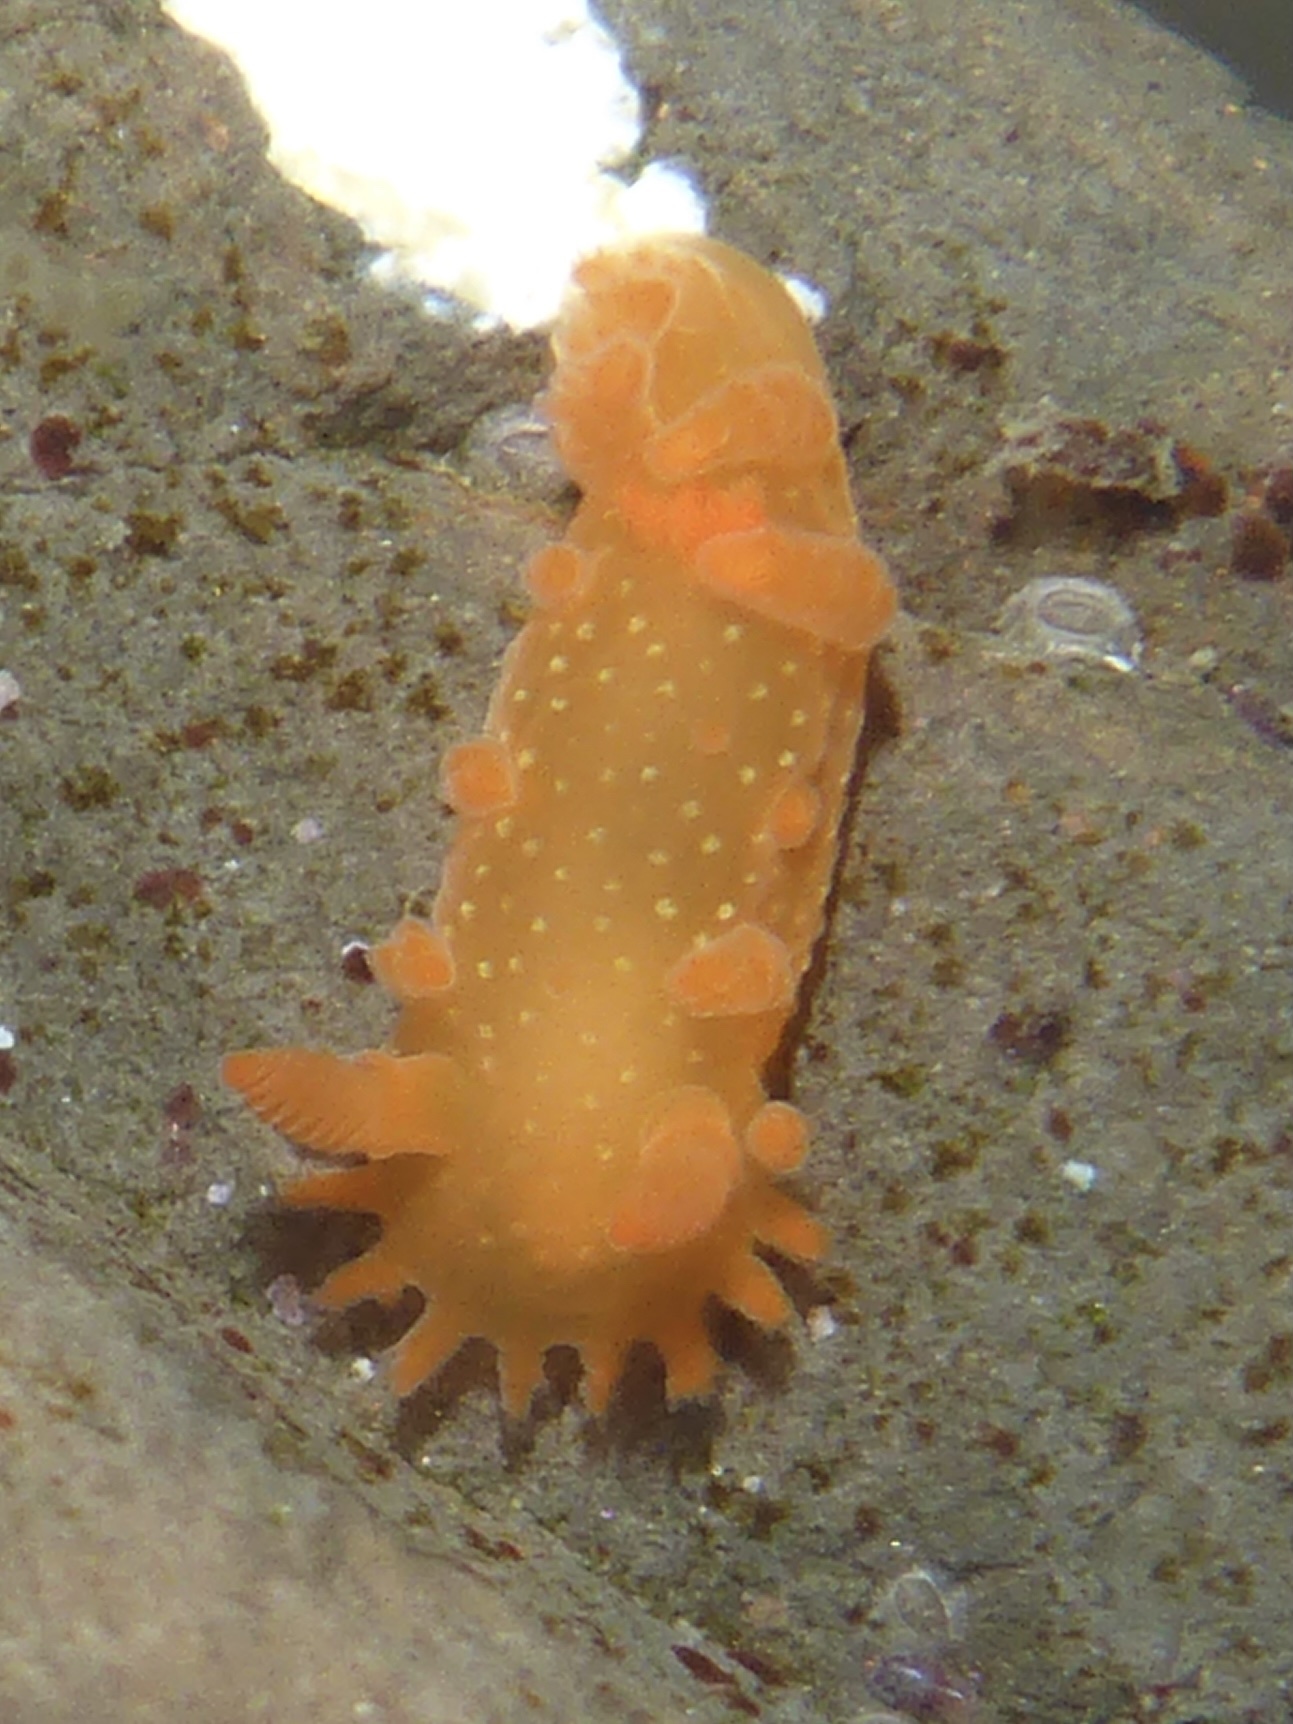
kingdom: Animalia
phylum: Mollusca
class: Gastropoda
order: Nudibranchia
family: Polyceridae
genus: Triopha
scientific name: Triopha maculata
